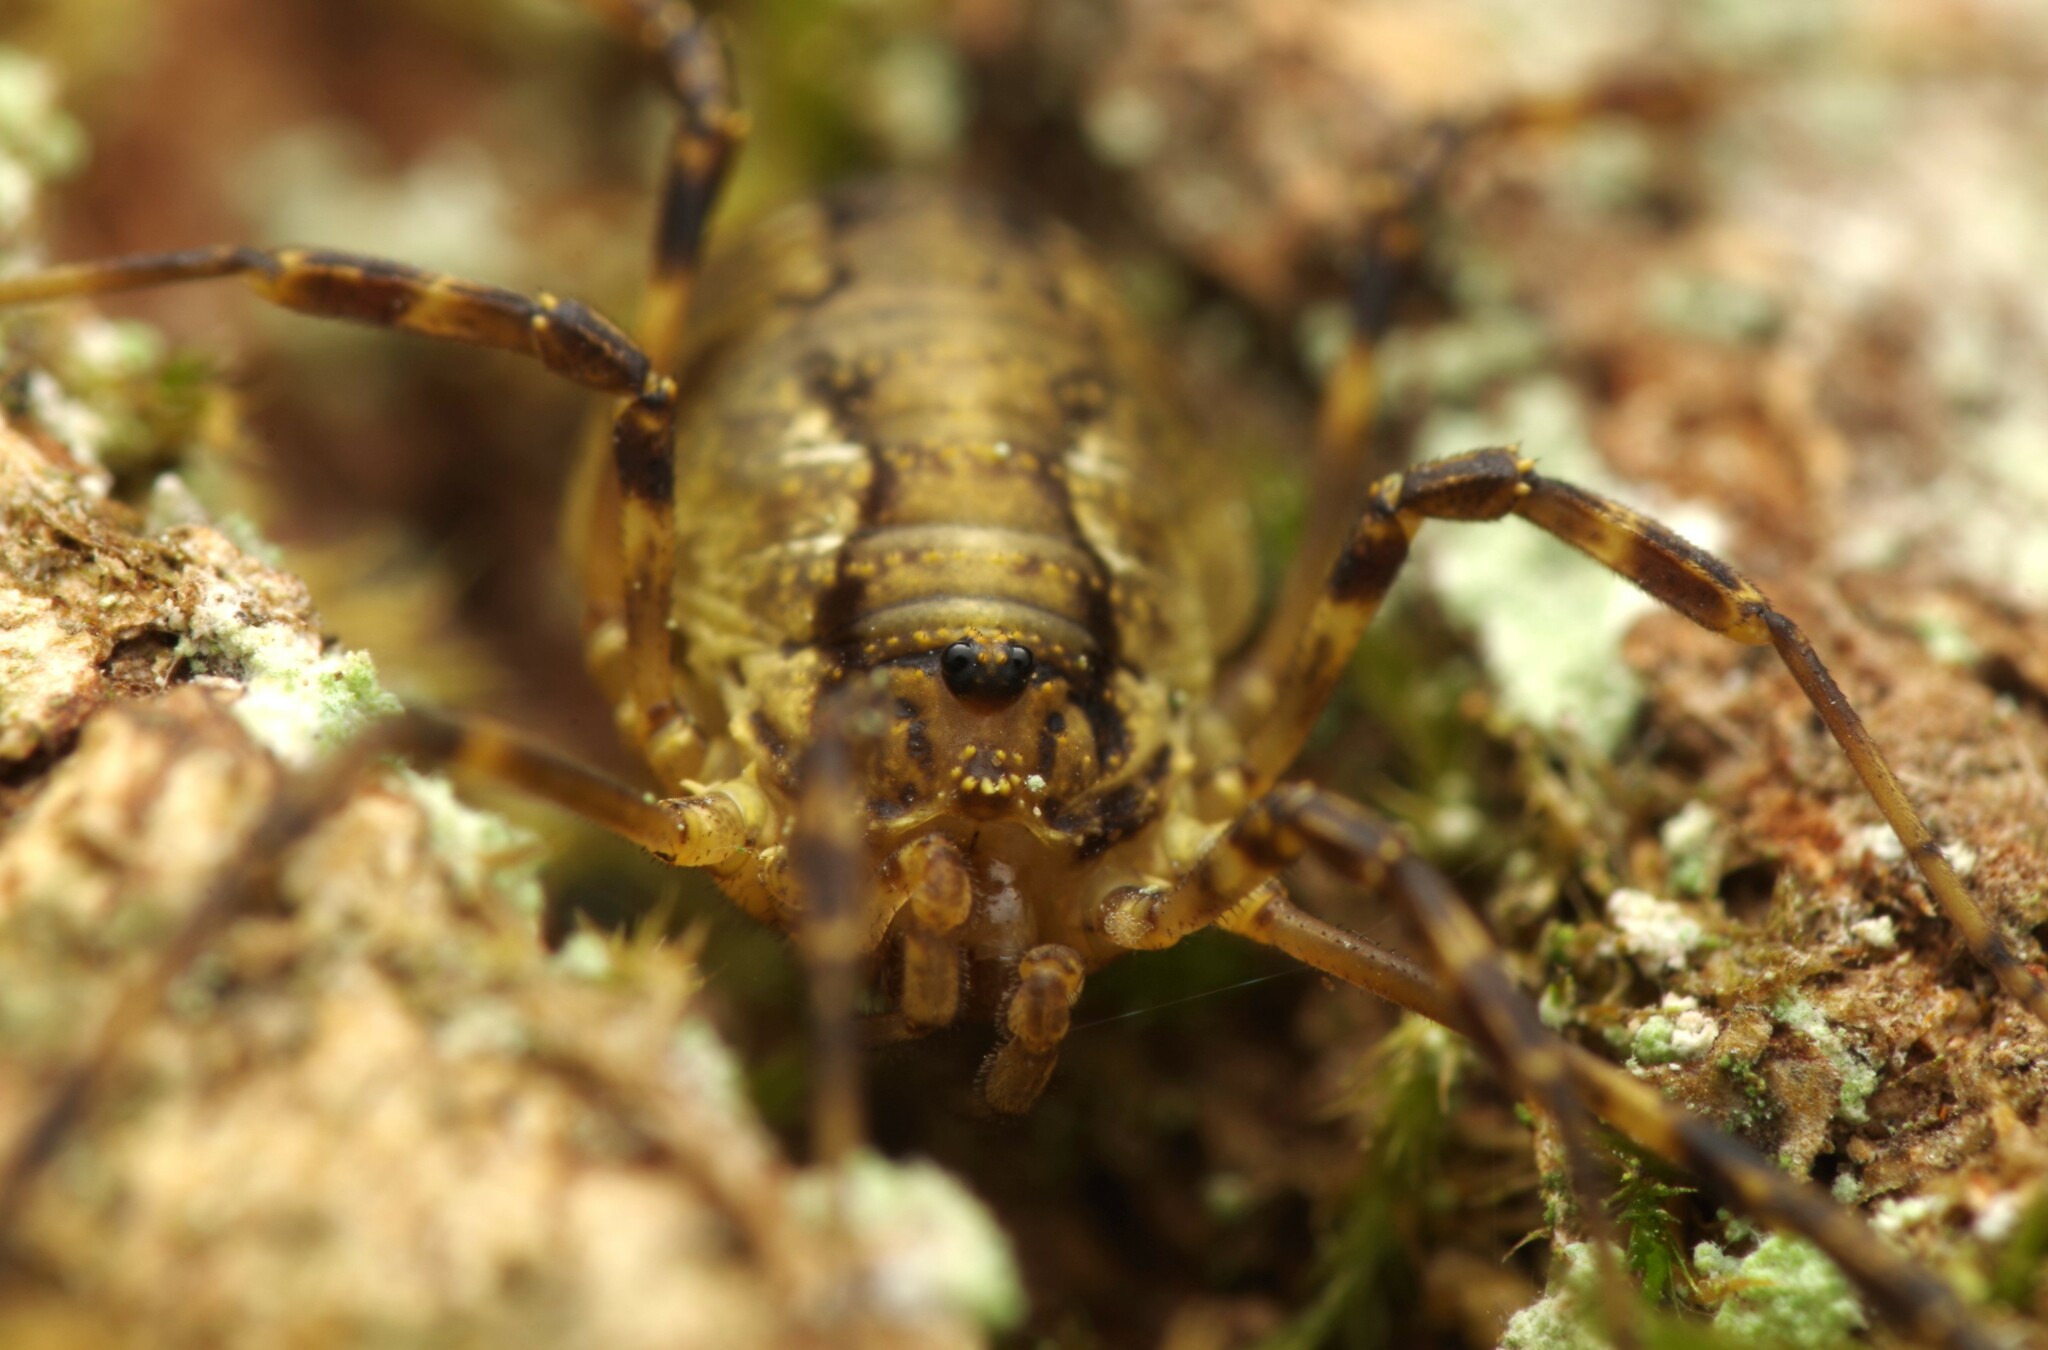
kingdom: Animalia
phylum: Arthropoda
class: Arachnida
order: Opiliones
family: Phalangiidae
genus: Oligolophus
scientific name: Oligolophus hansenii
